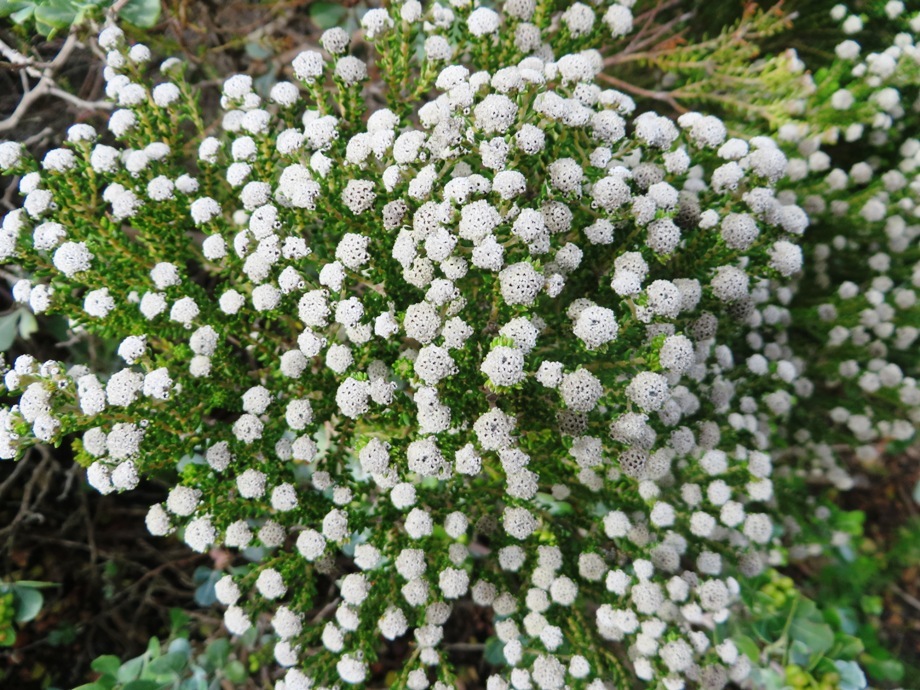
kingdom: Plantae
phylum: Tracheophyta
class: Magnoliopsida
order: Rosales
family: Rhamnaceae
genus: Phylica
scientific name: Phylica ericoides
